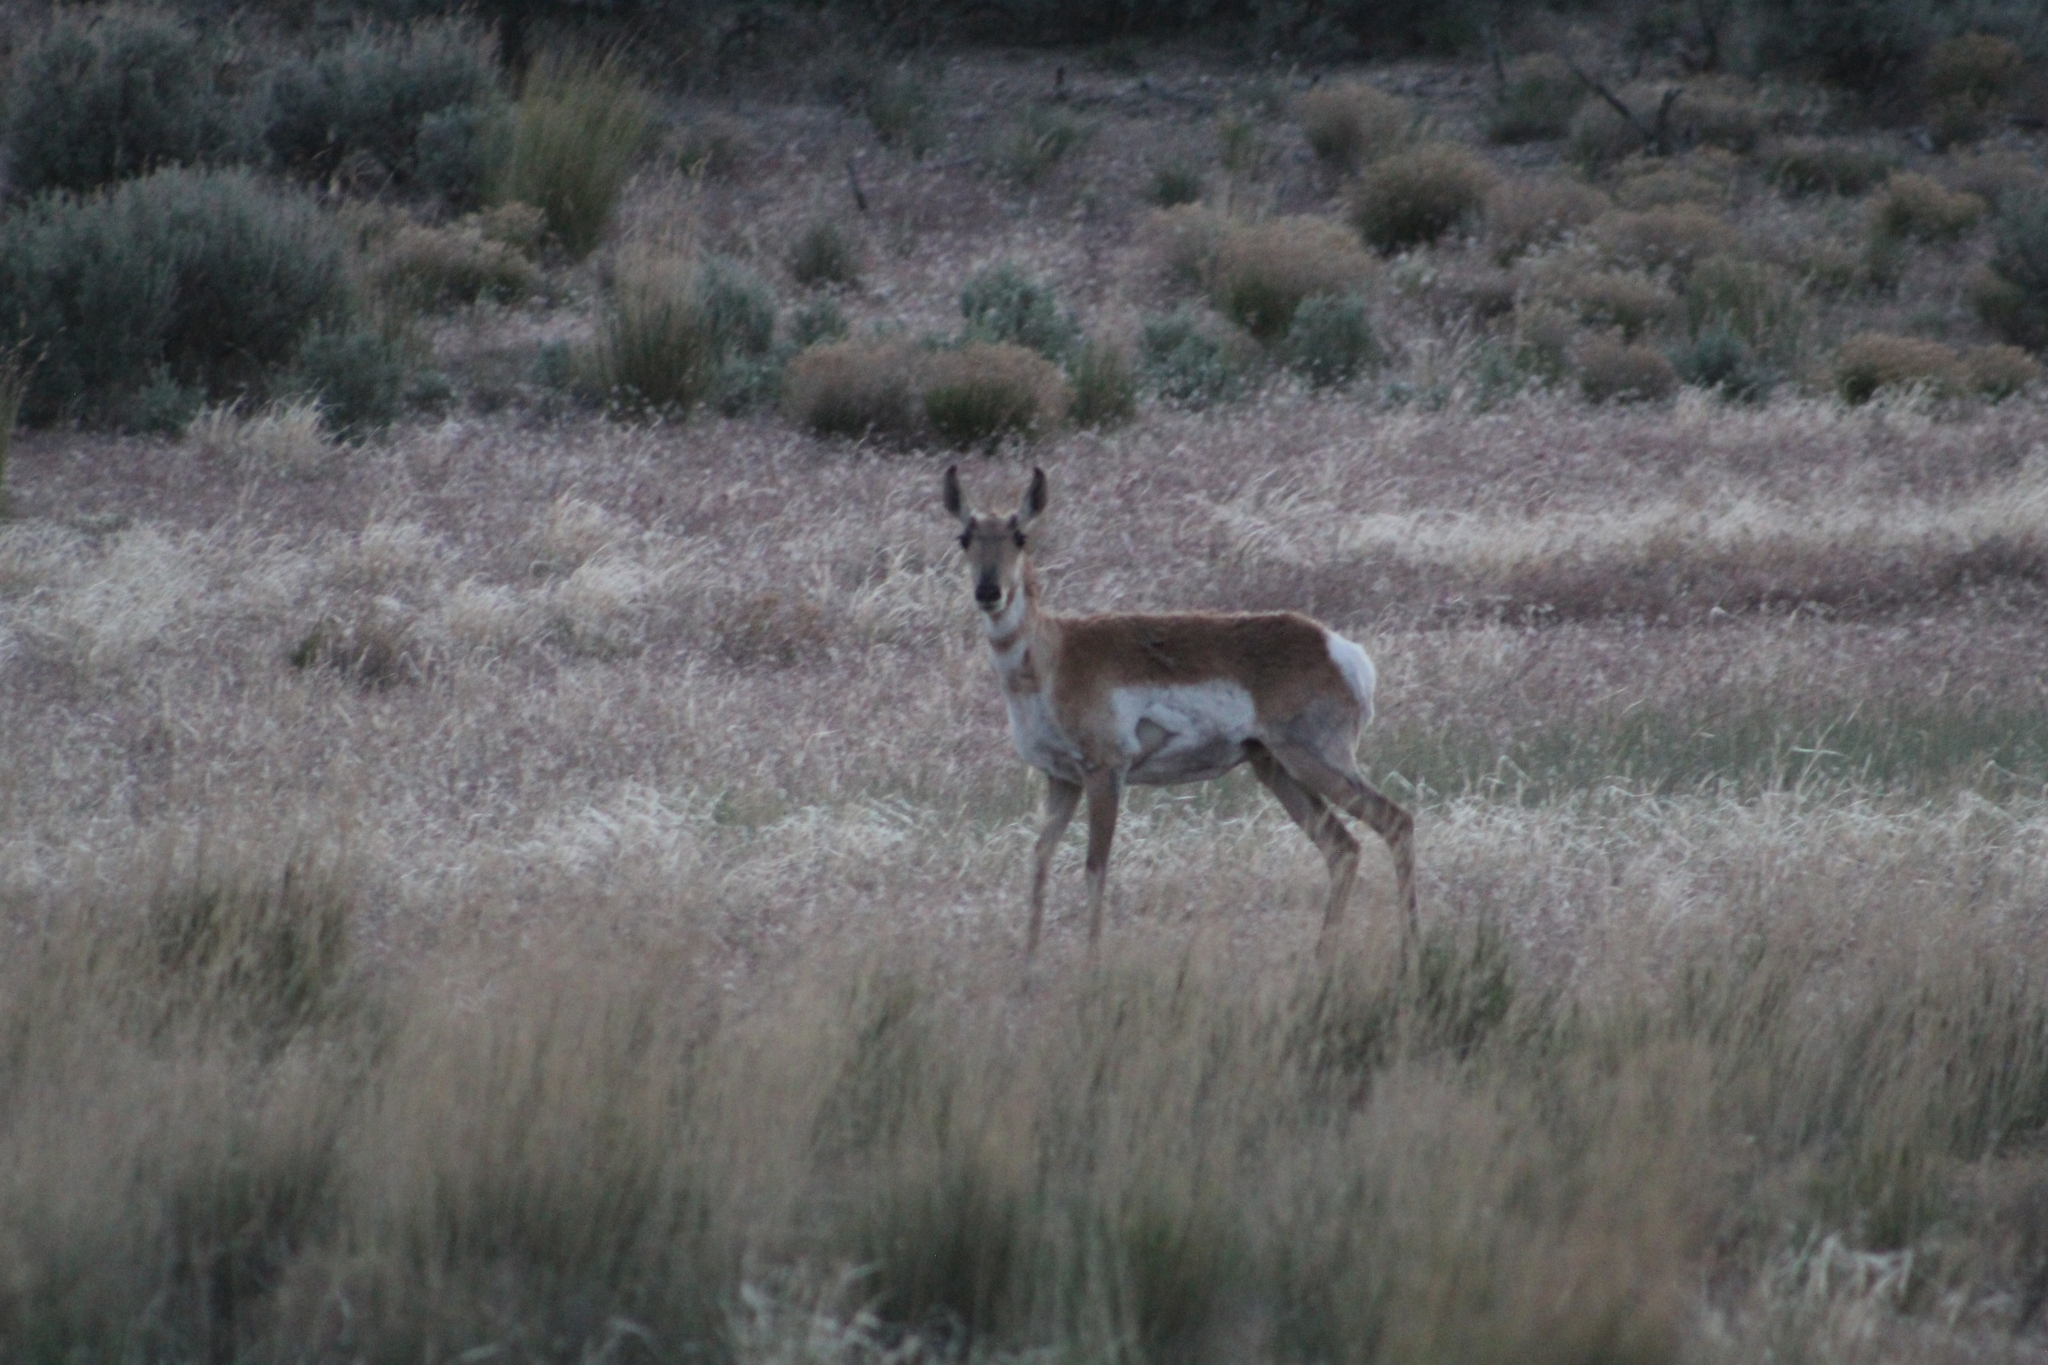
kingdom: Animalia
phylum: Chordata
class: Mammalia
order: Artiodactyla
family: Antilocapridae
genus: Antilocapra
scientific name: Antilocapra americana
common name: Pronghorn
